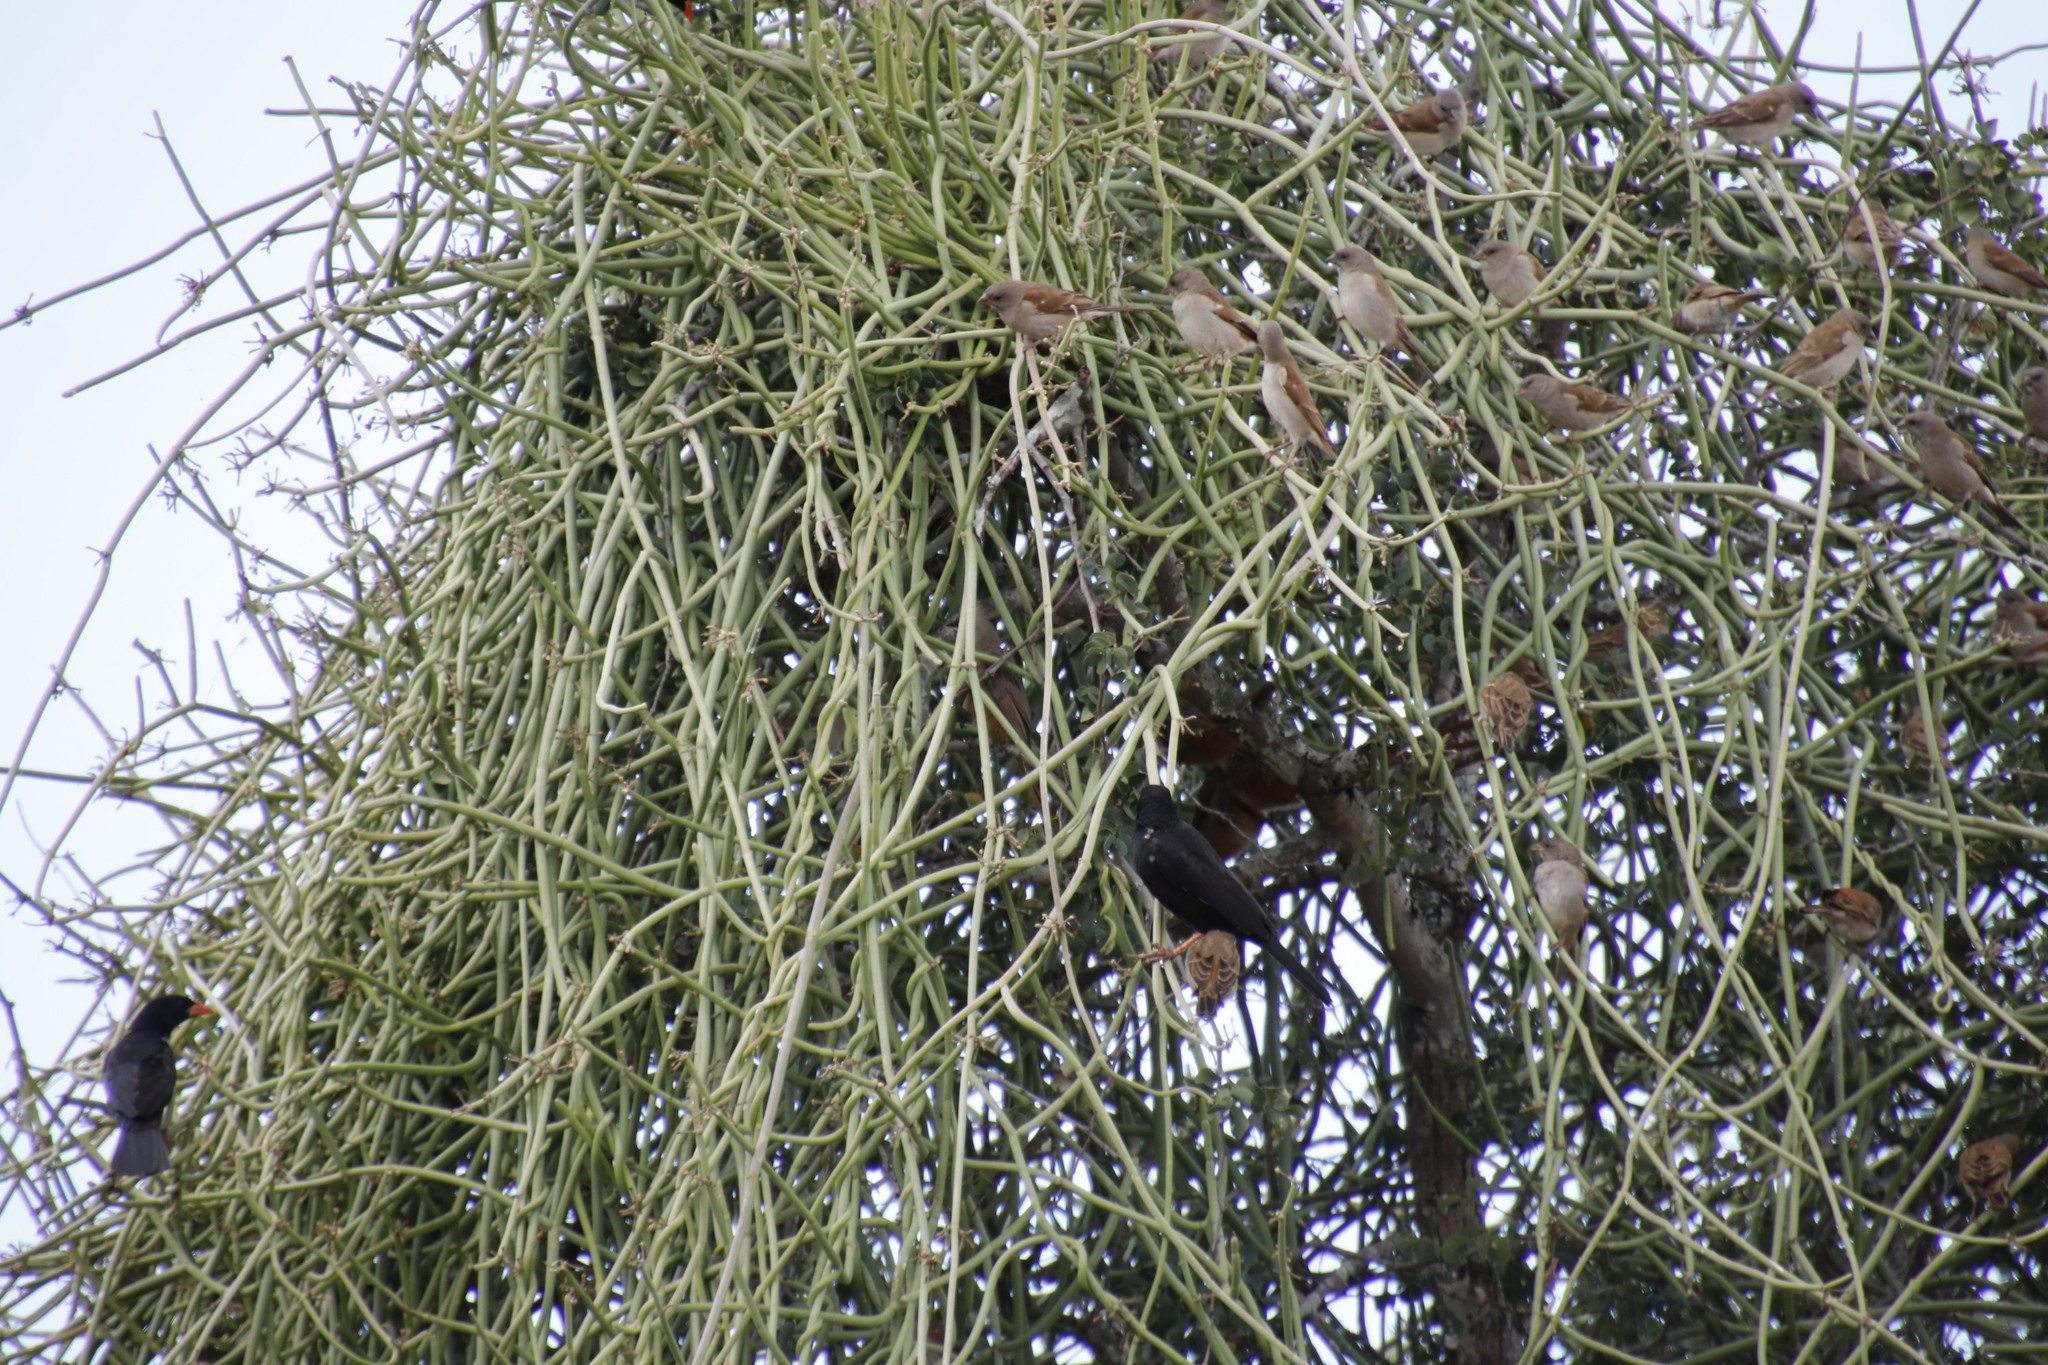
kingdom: Animalia
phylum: Chordata
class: Aves
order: Passeriformes
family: Passeridae
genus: Passer
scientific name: Passer diffusus
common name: Southern grey-headed sparrow
